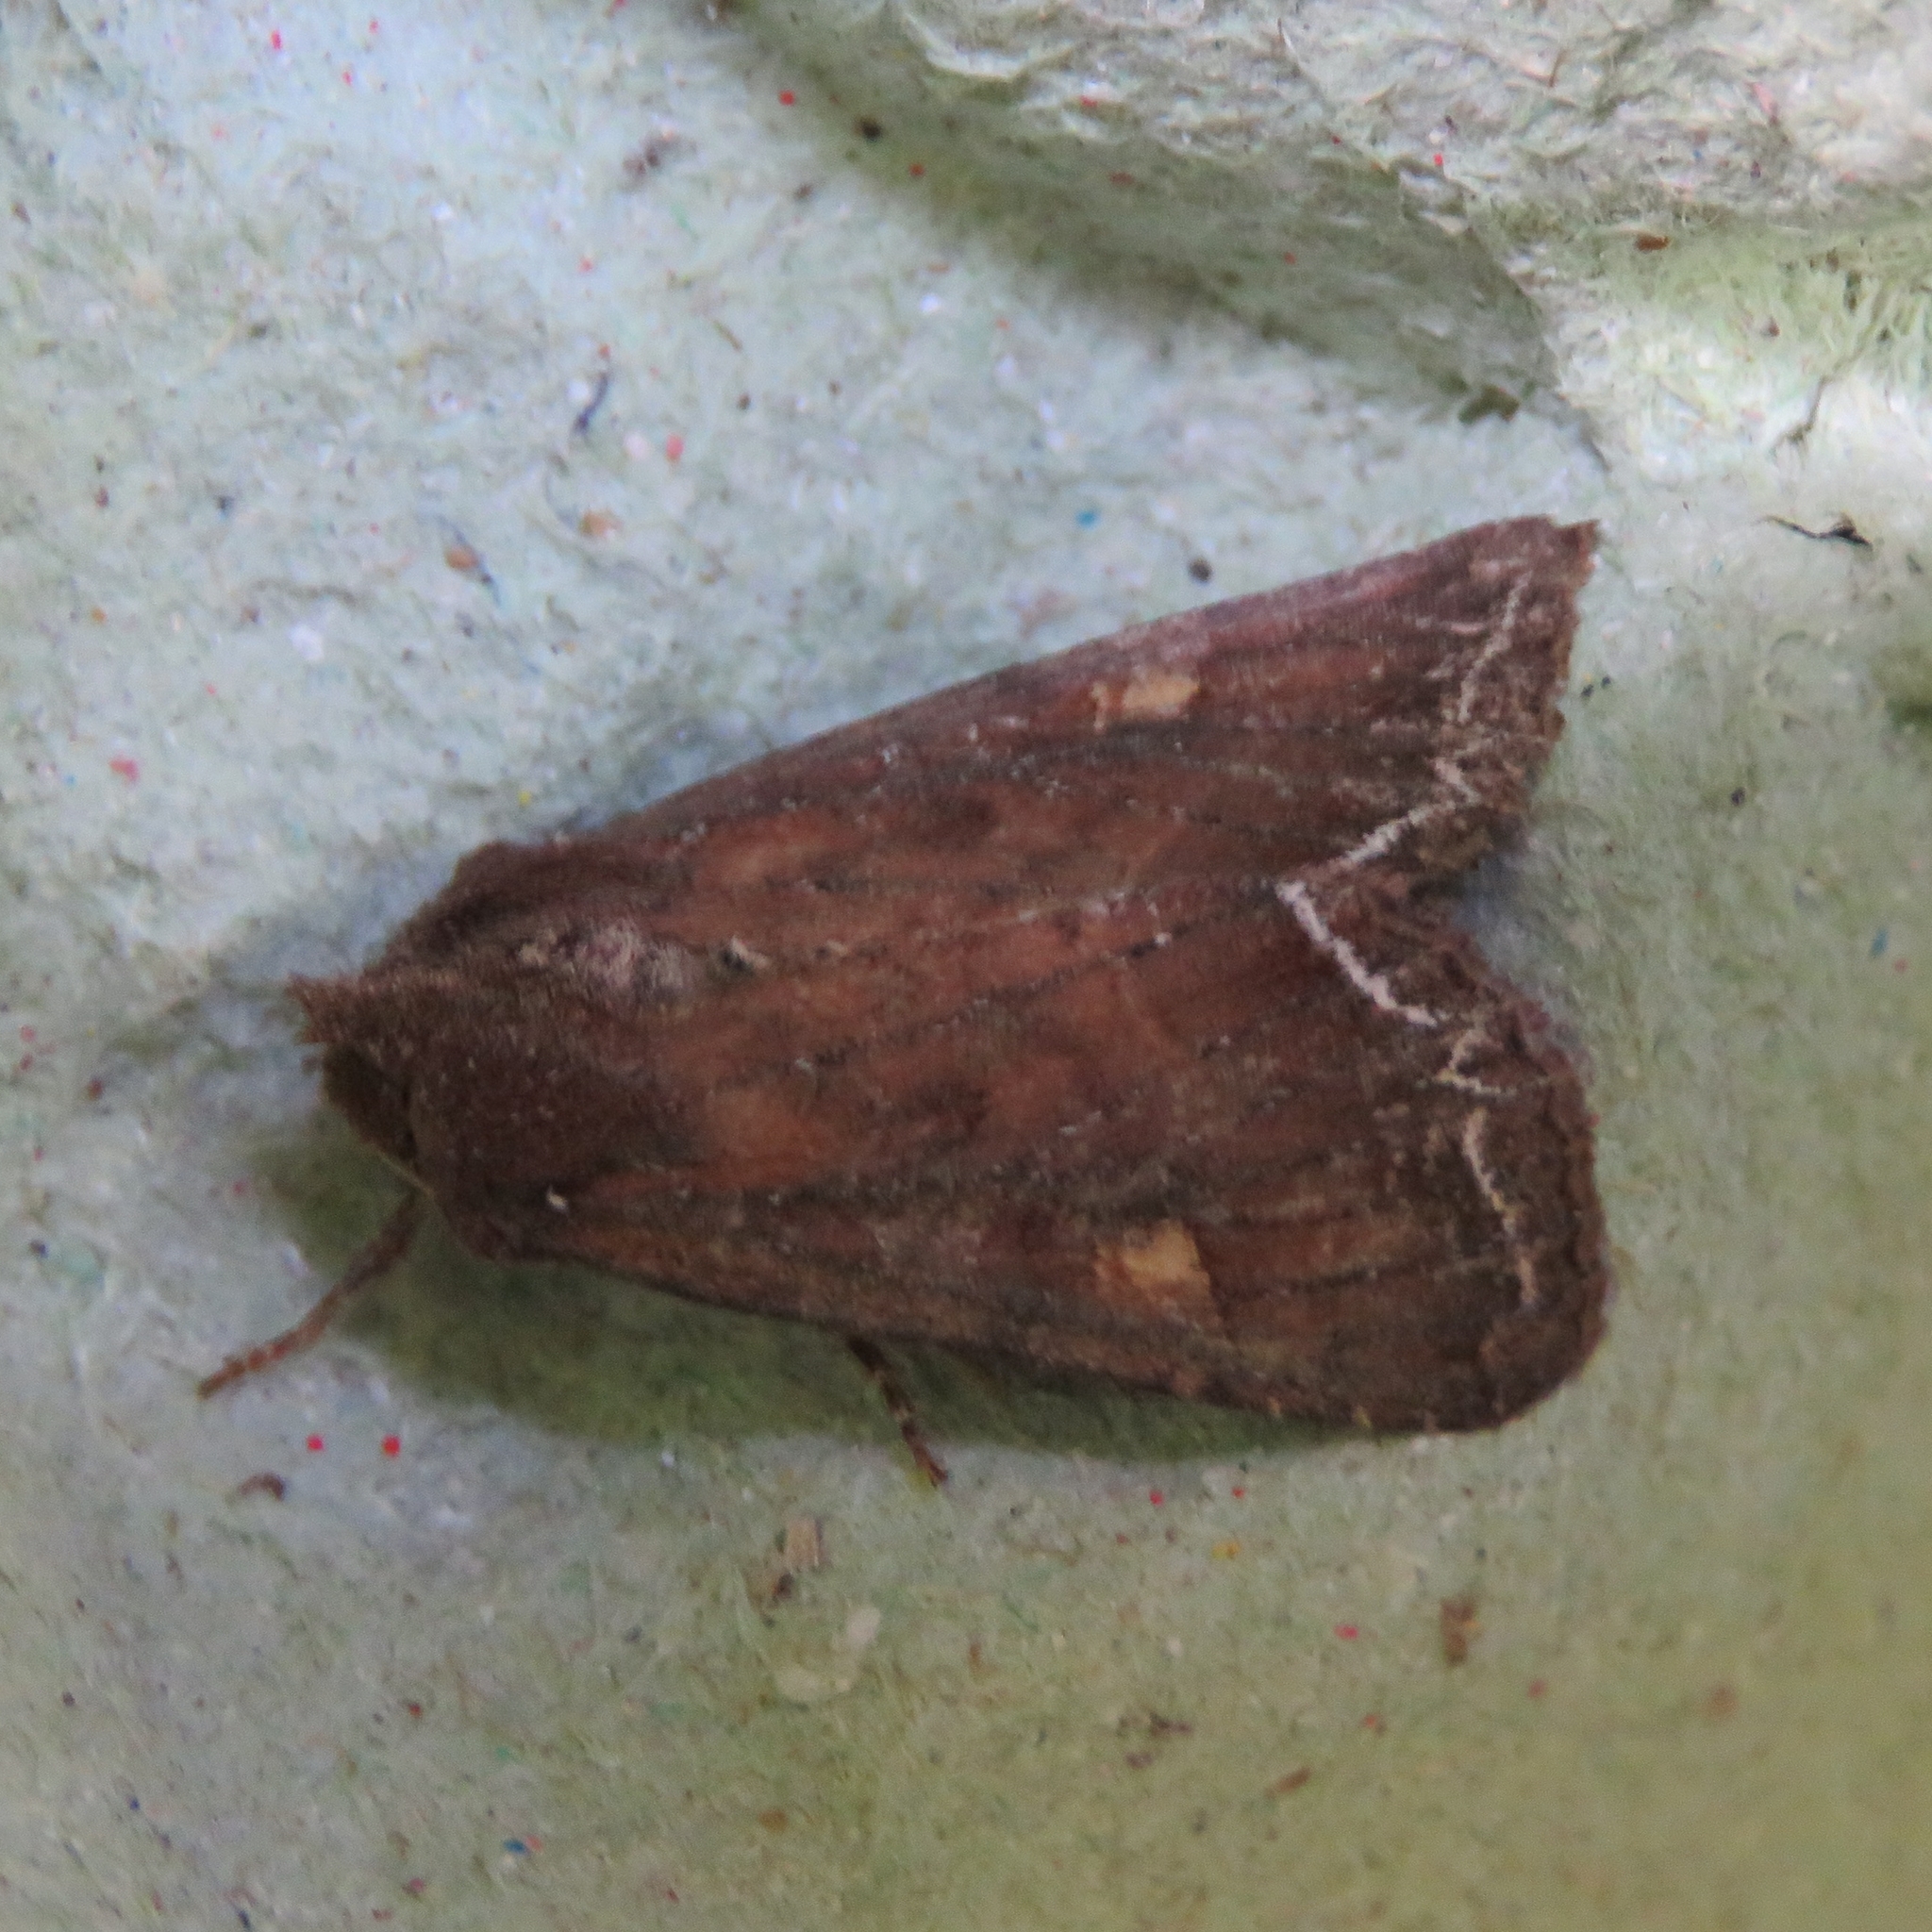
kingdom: Animalia
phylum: Arthropoda
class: Insecta
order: Lepidoptera
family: Noctuidae
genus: Lacanobia
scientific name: Lacanobia oleracea
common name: Bright-line brown-eye
